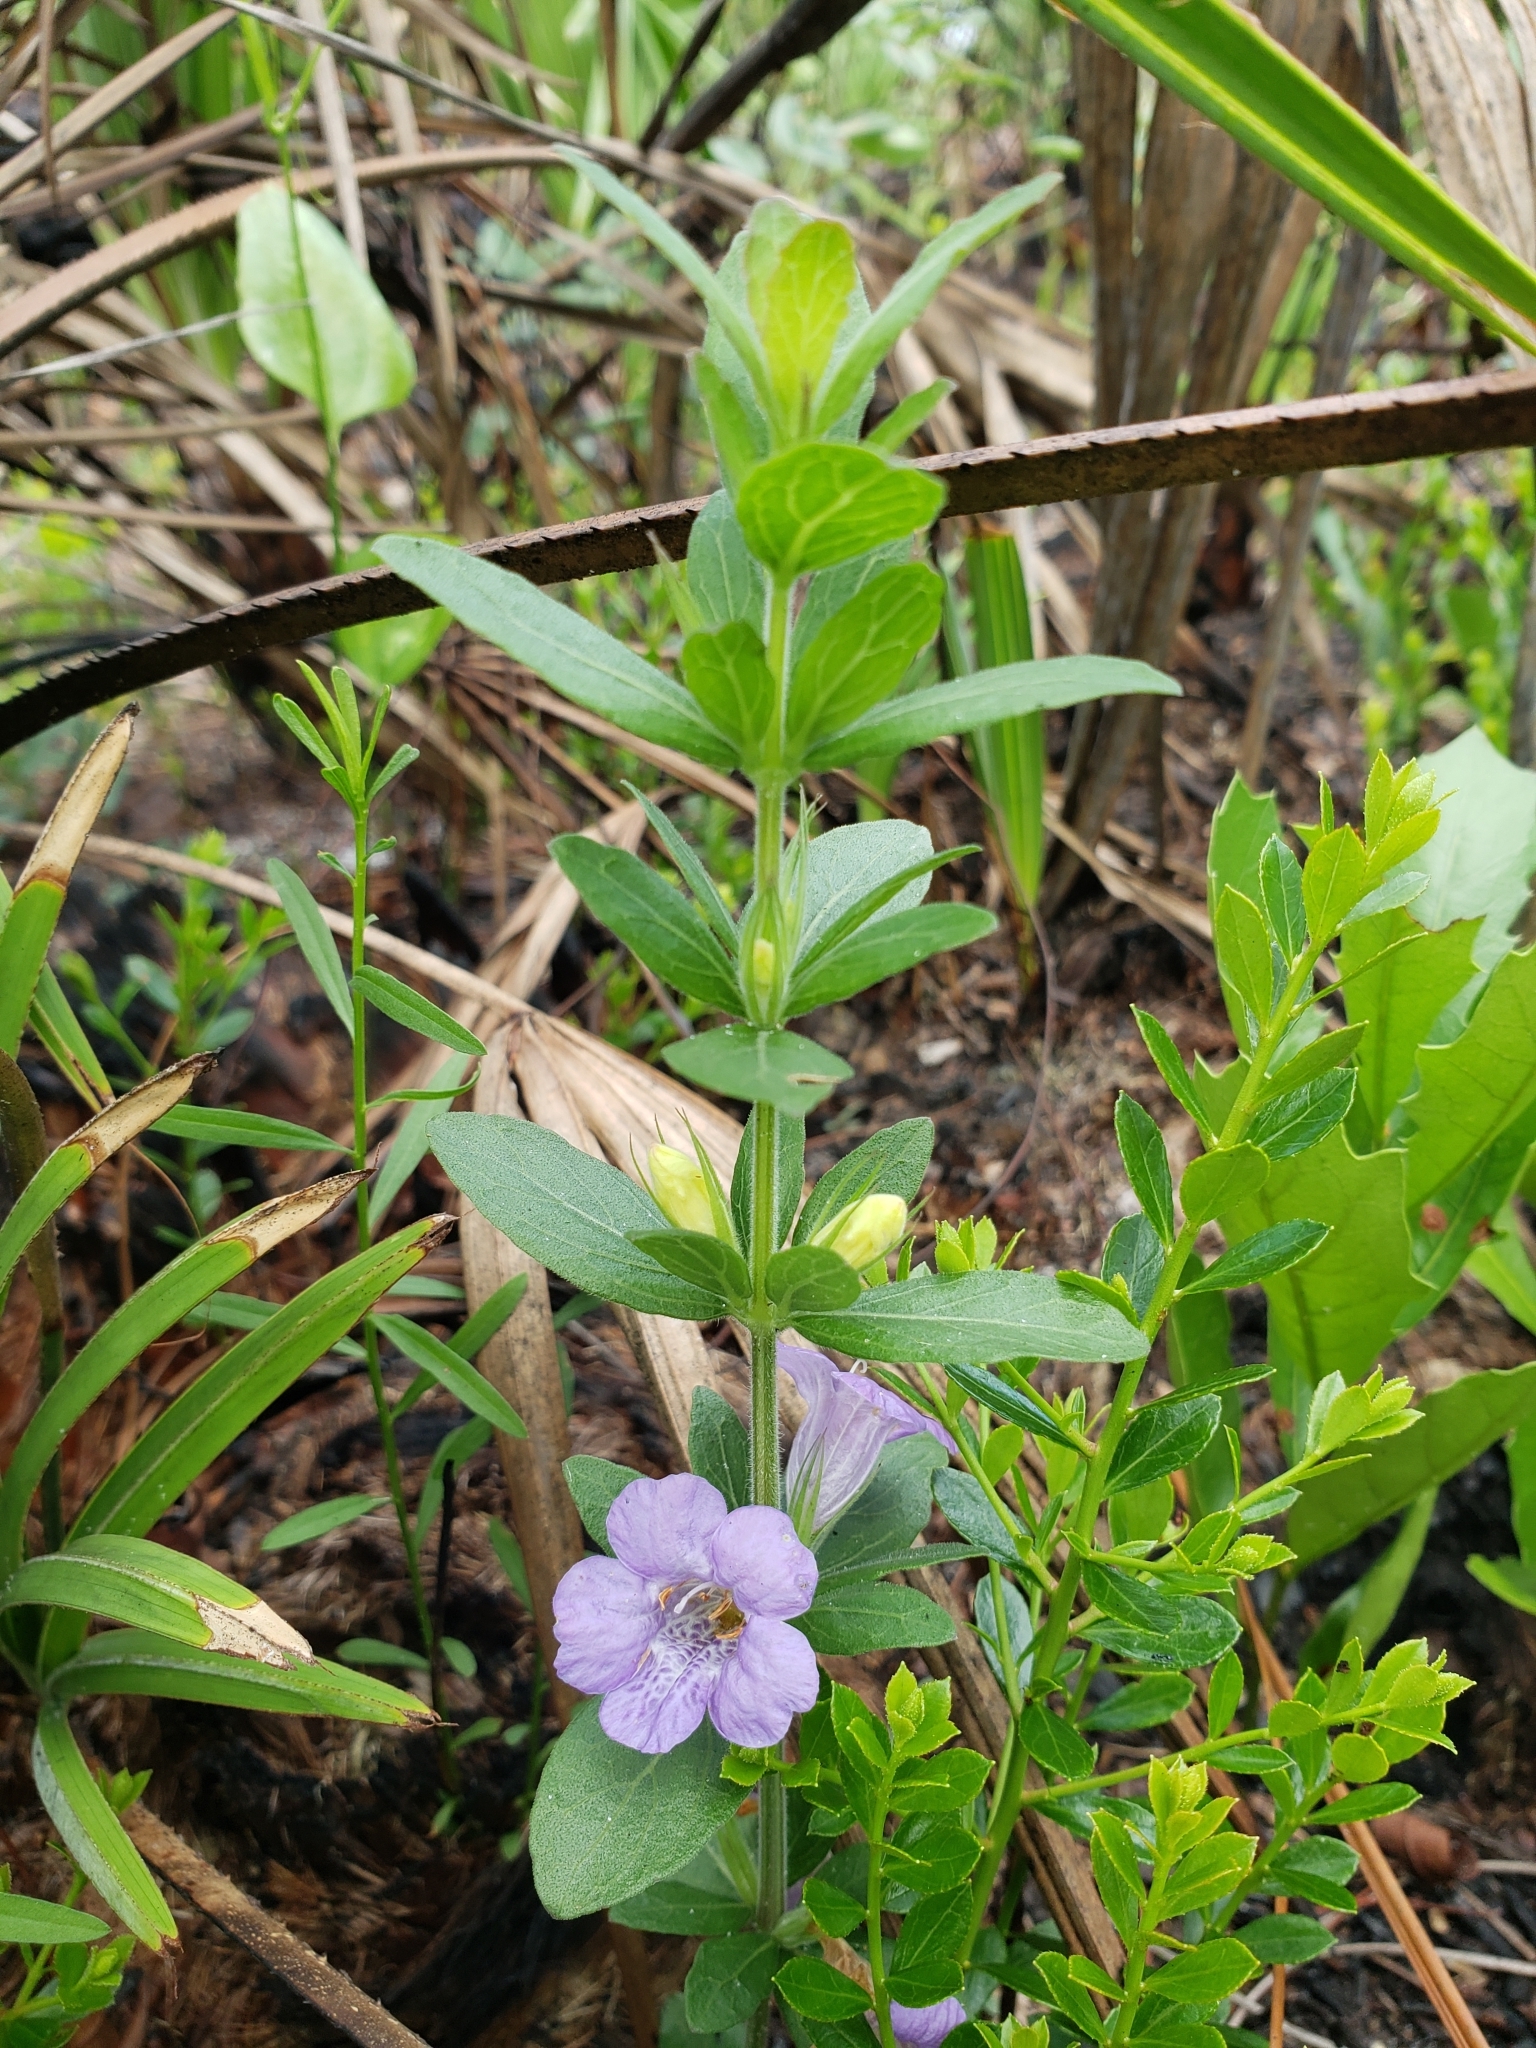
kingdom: Plantae
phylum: Tracheophyta
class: Magnoliopsida
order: Lamiales
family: Acanthaceae
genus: Dyschoriste
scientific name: Dyschoriste oblongifolia
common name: Blue twinflower
